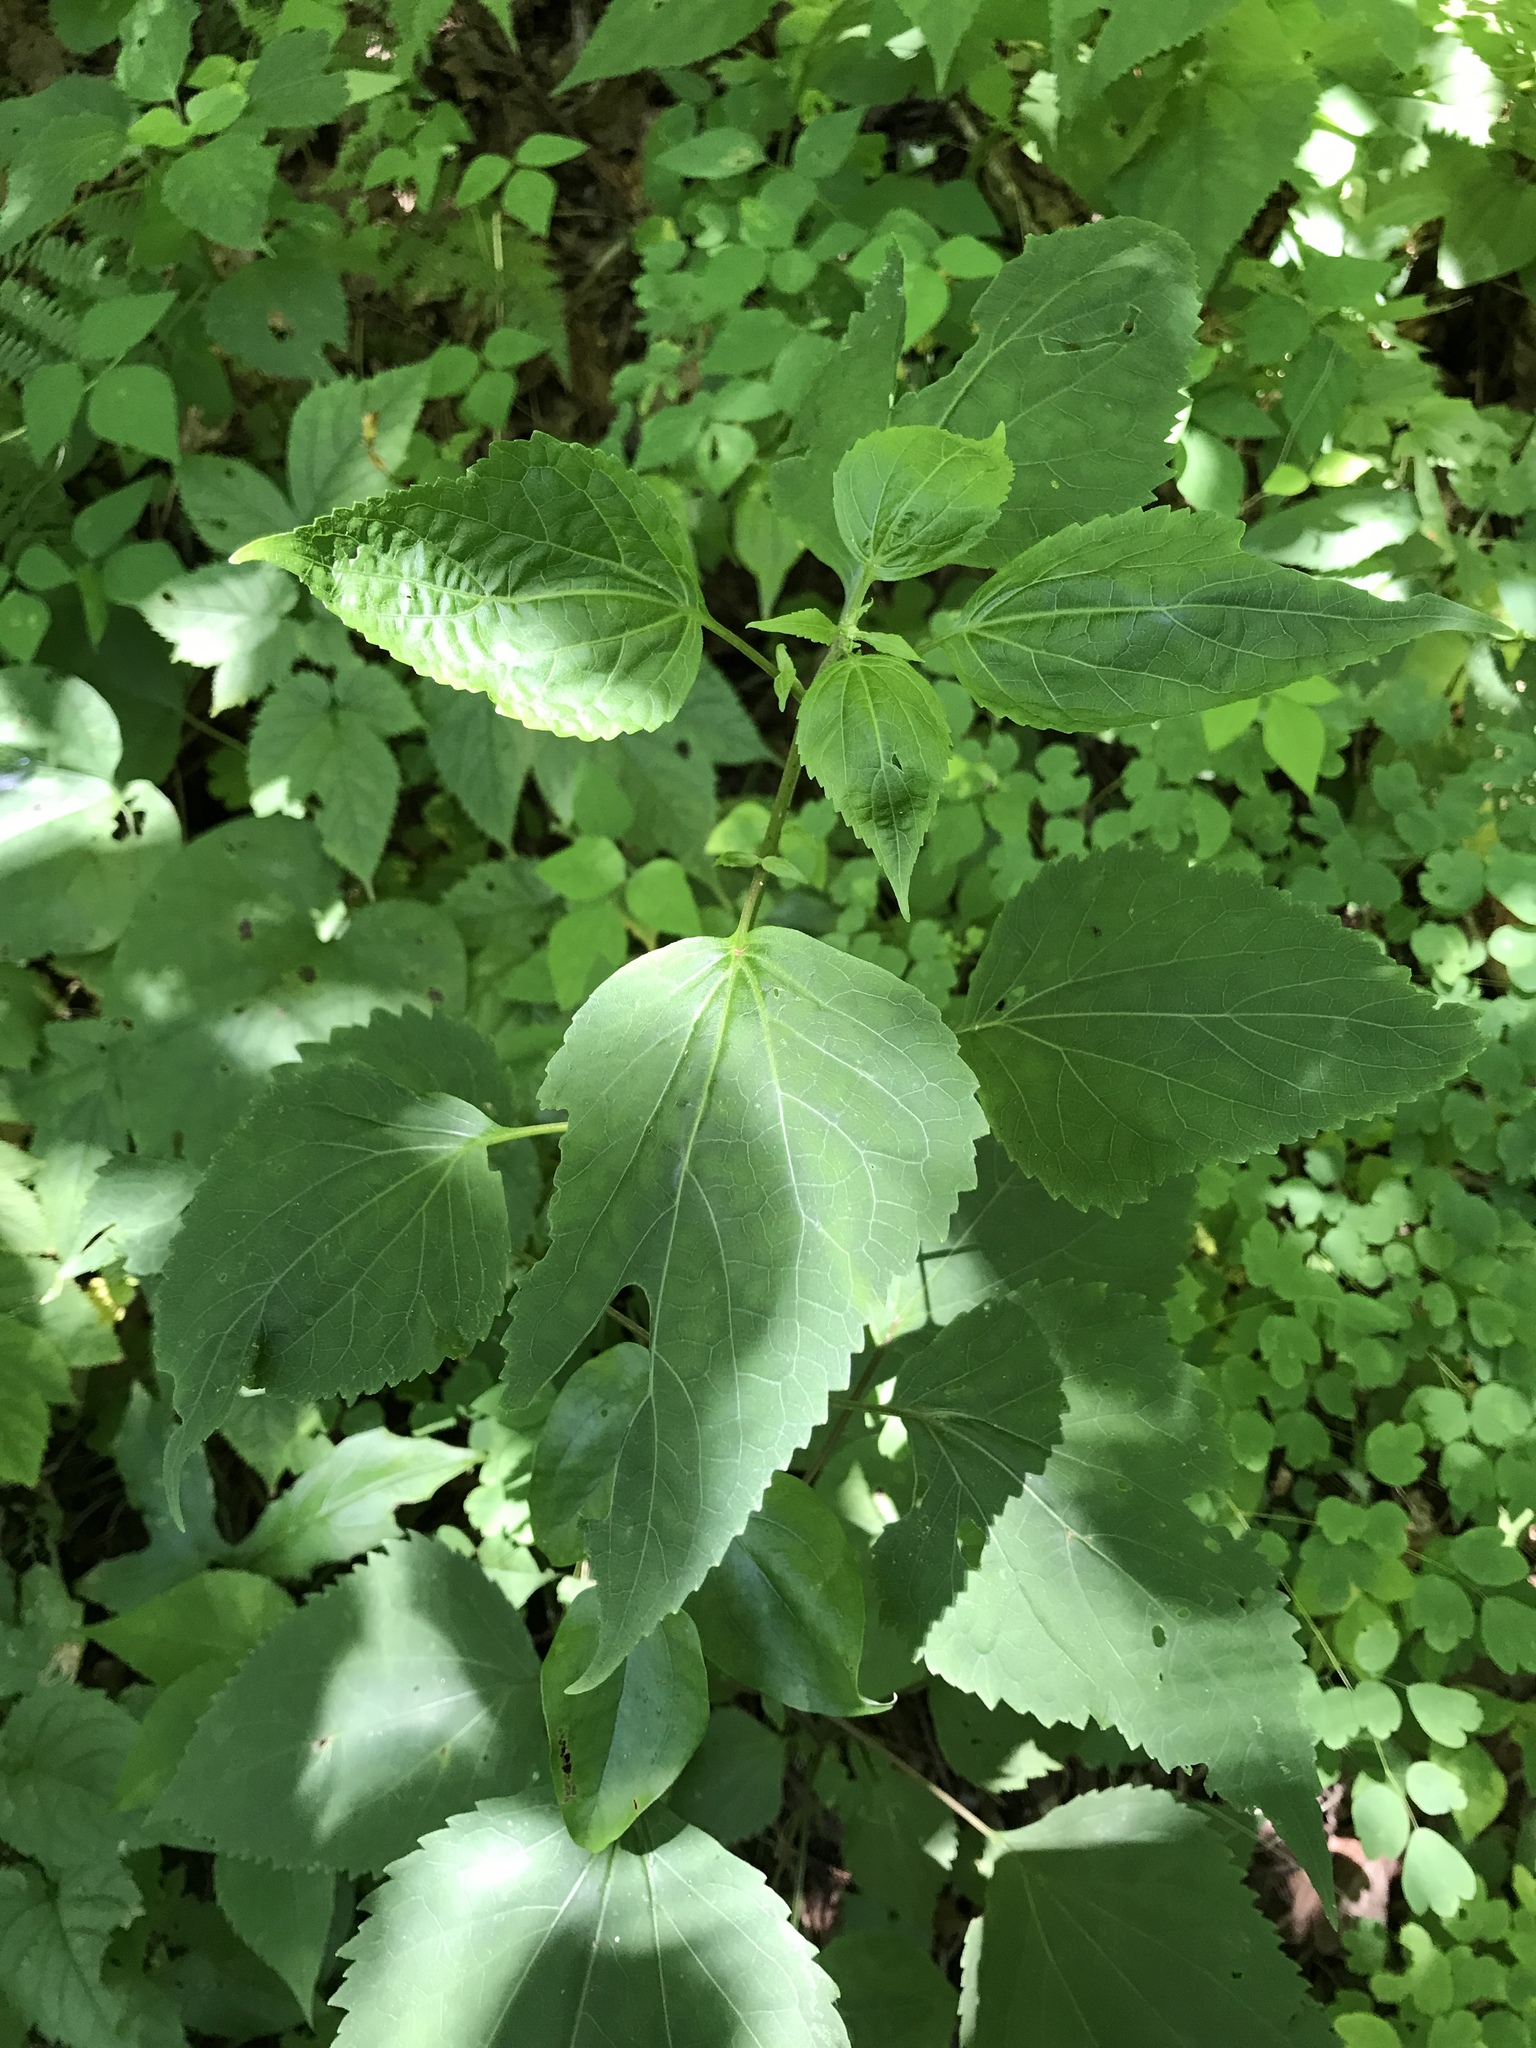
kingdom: Plantae
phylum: Tracheophyta
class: Magnoliopsida
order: Asterales
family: Asteraceae
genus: Ageratina
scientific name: Ageratina altissima
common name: White snakeroot
